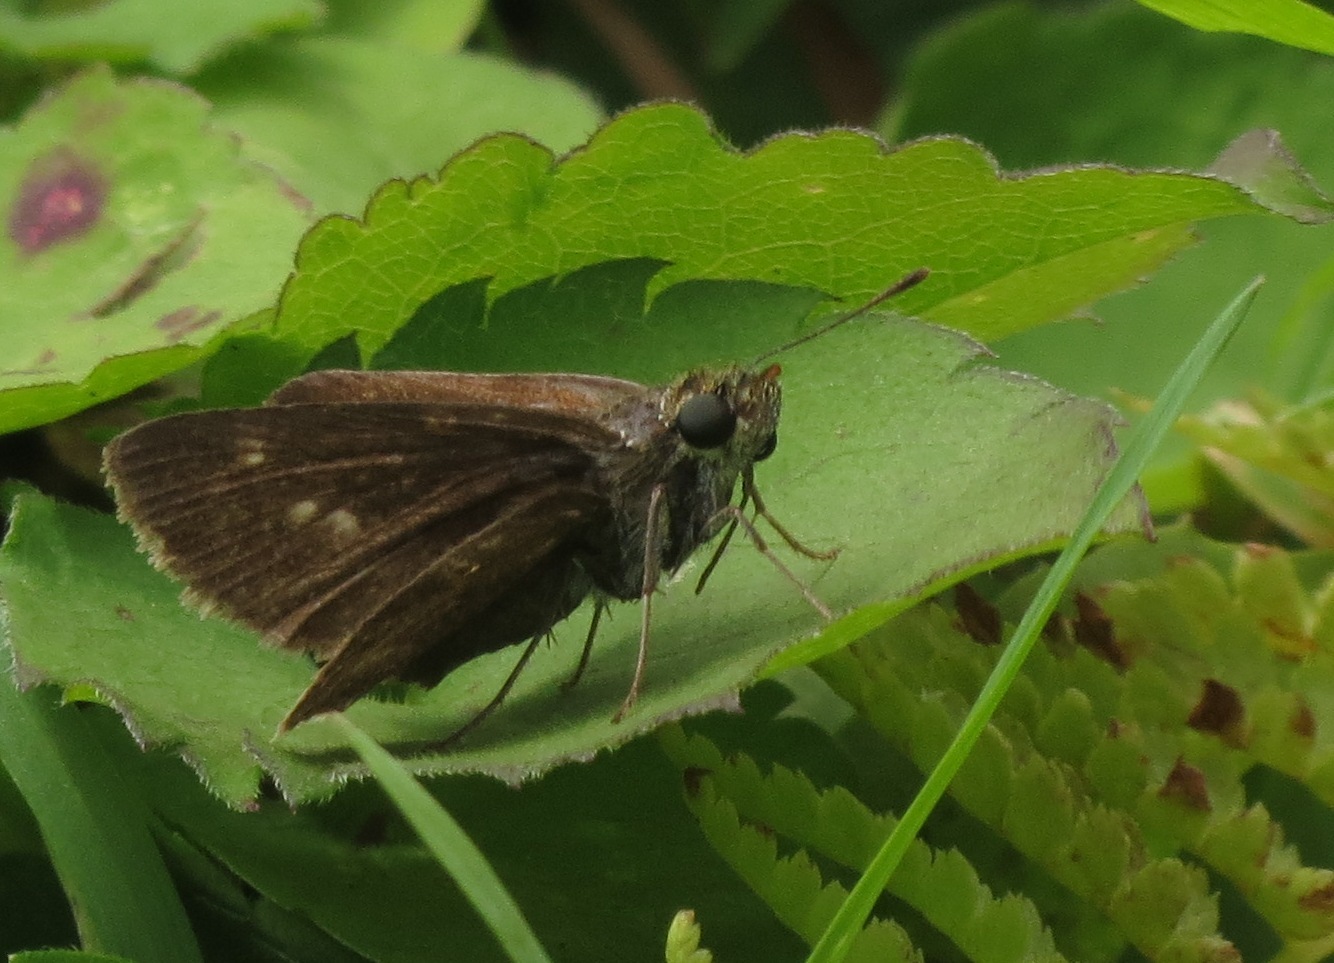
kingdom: Animalia
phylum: Arthropoda
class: Insecta
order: Lepidoptera
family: Hesperiidae
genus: Euphyes
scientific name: Euphyes vestris
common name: Dun skipper
